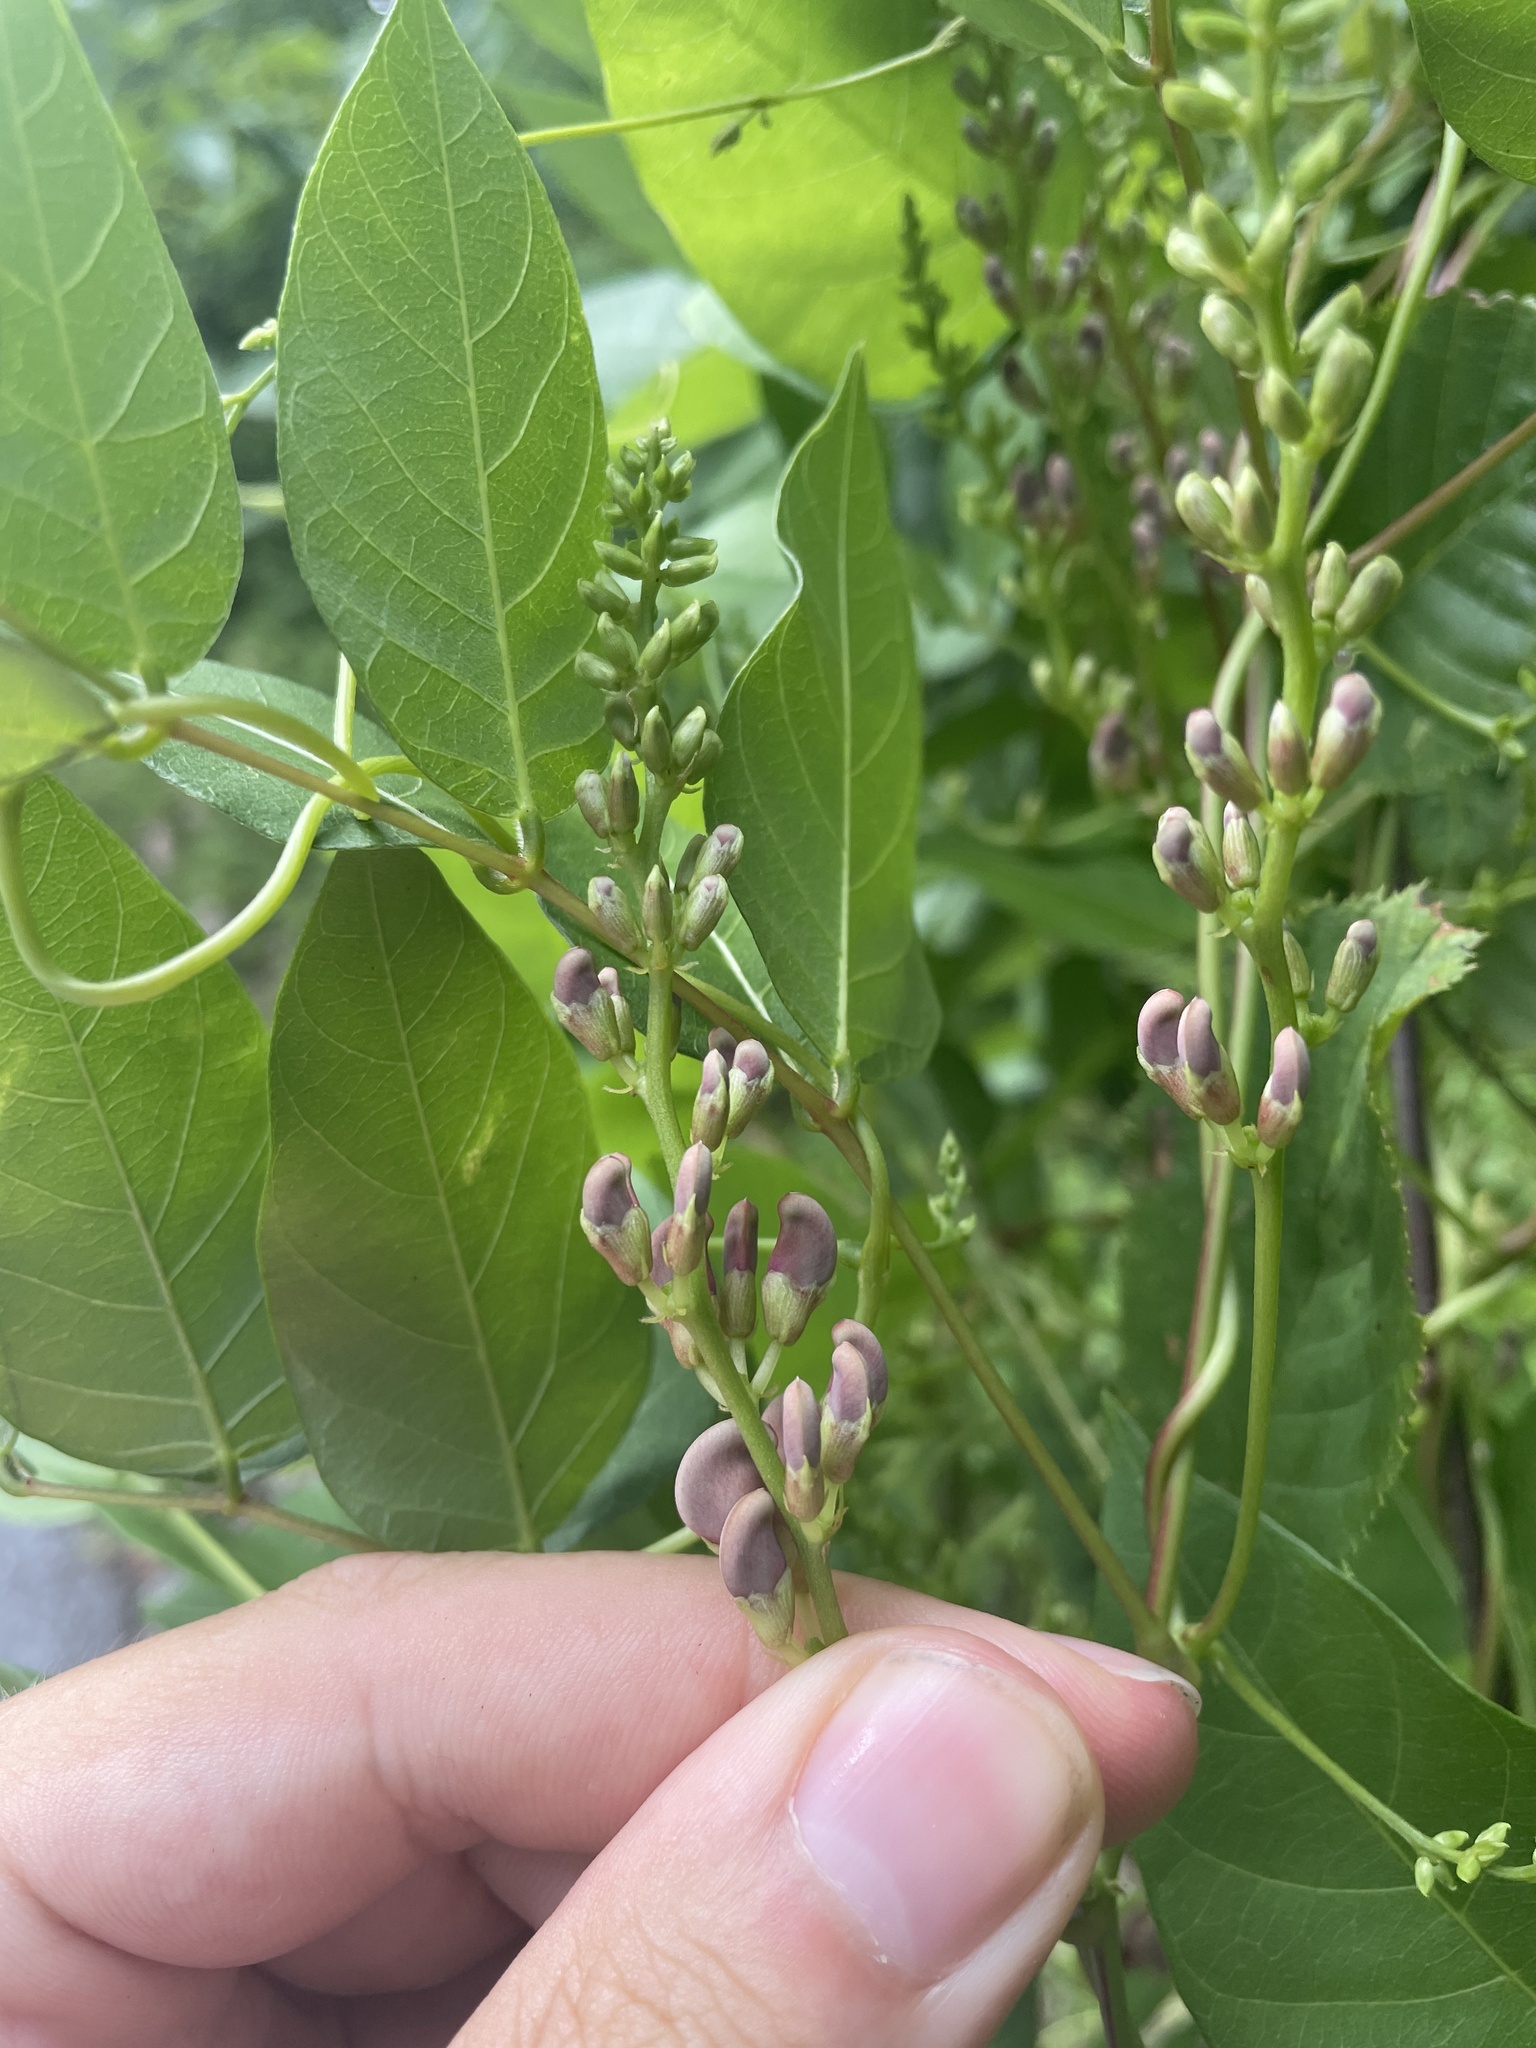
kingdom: Plantae
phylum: Tracheophyta
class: Magnoliopsida
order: Fabales
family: Fabaceae
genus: Apios
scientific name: Apios americana
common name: American potato-bean
